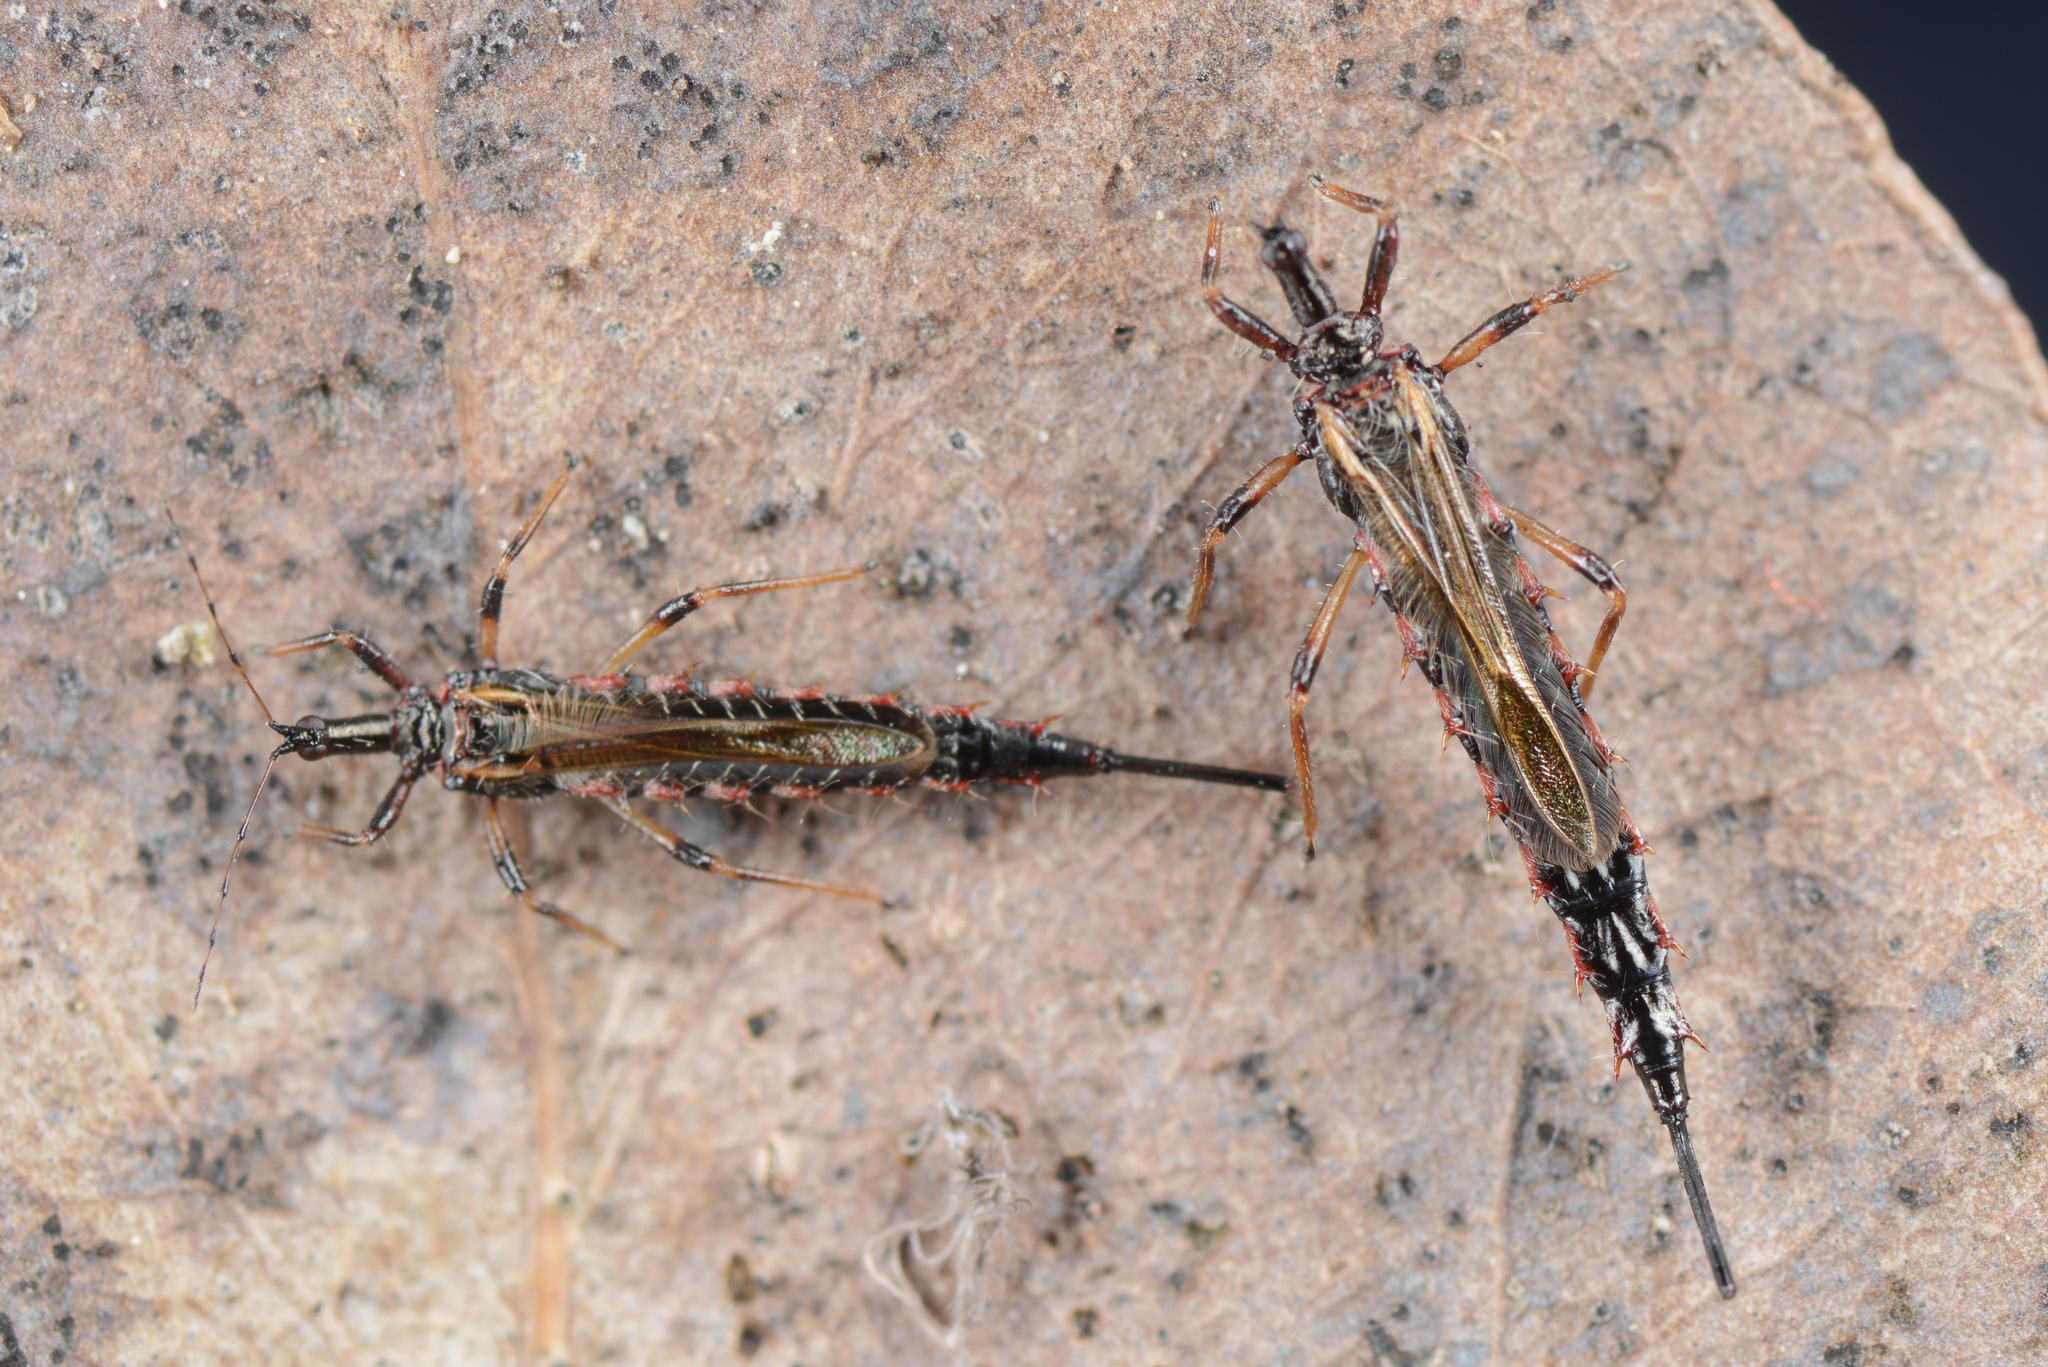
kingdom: Animalia
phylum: Arthropoda
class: Insecta
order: Thysanoptera
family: Phlaeothripidae
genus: Idolothrips
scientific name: Idolothrips spectrum
